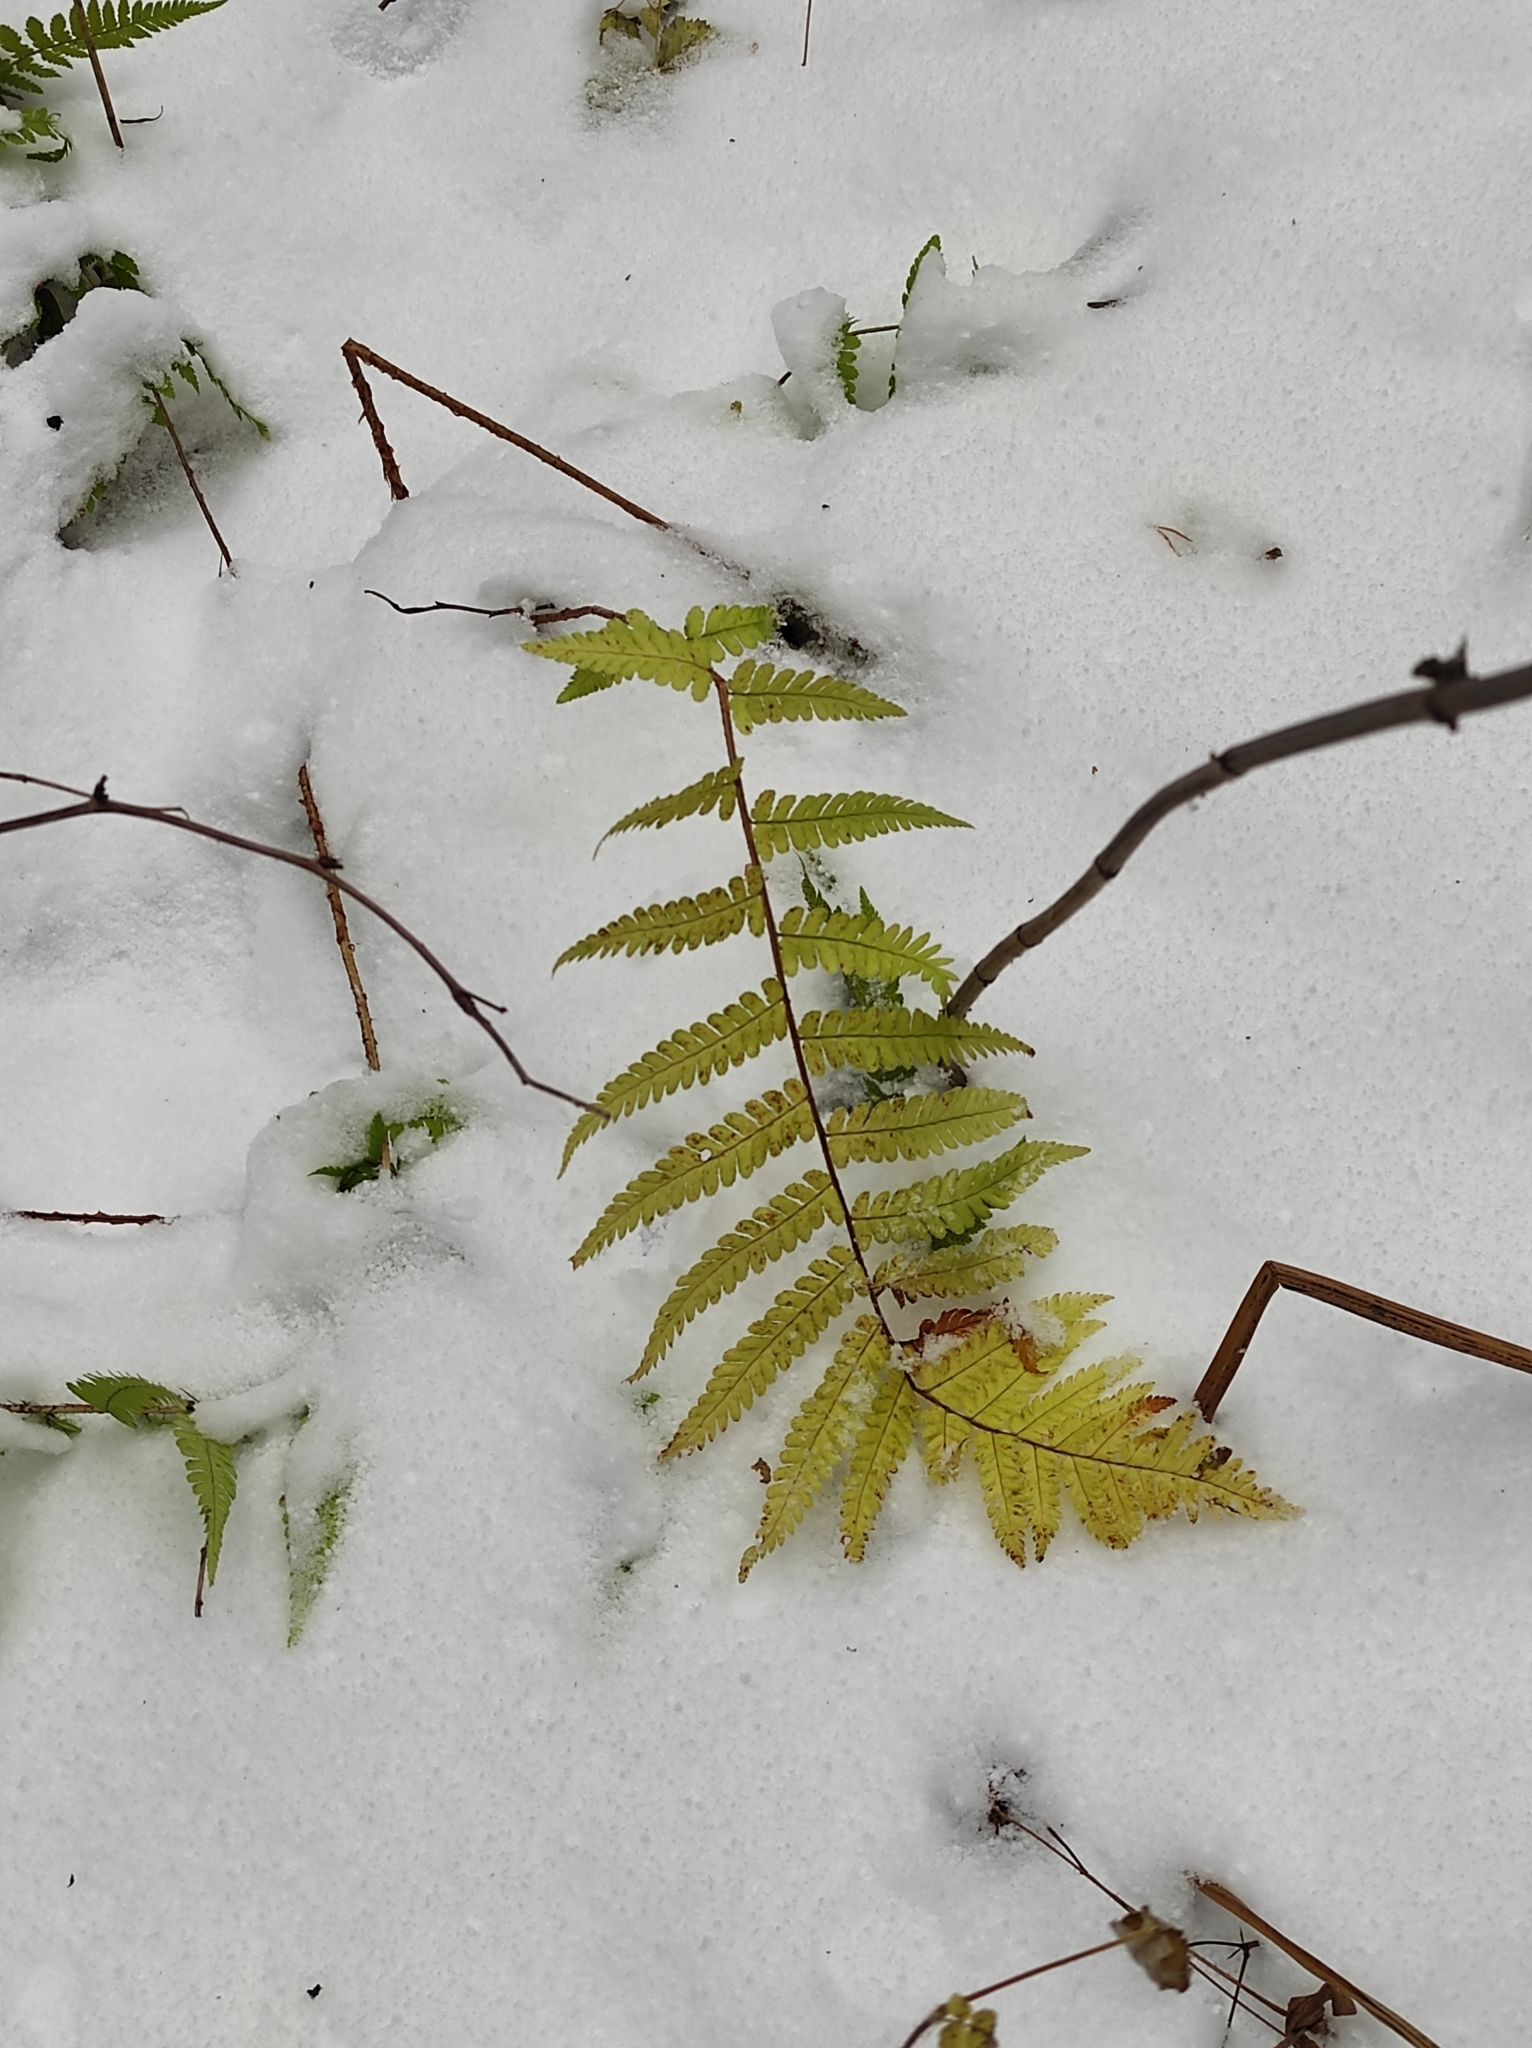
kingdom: Plantae
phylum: Tracheophyta
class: Polypodiopsida
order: Polypodiales
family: Dryopteridaceae
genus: Dryopteris
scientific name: Dryopteris carthusiana
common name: Narrow buckler-fern
